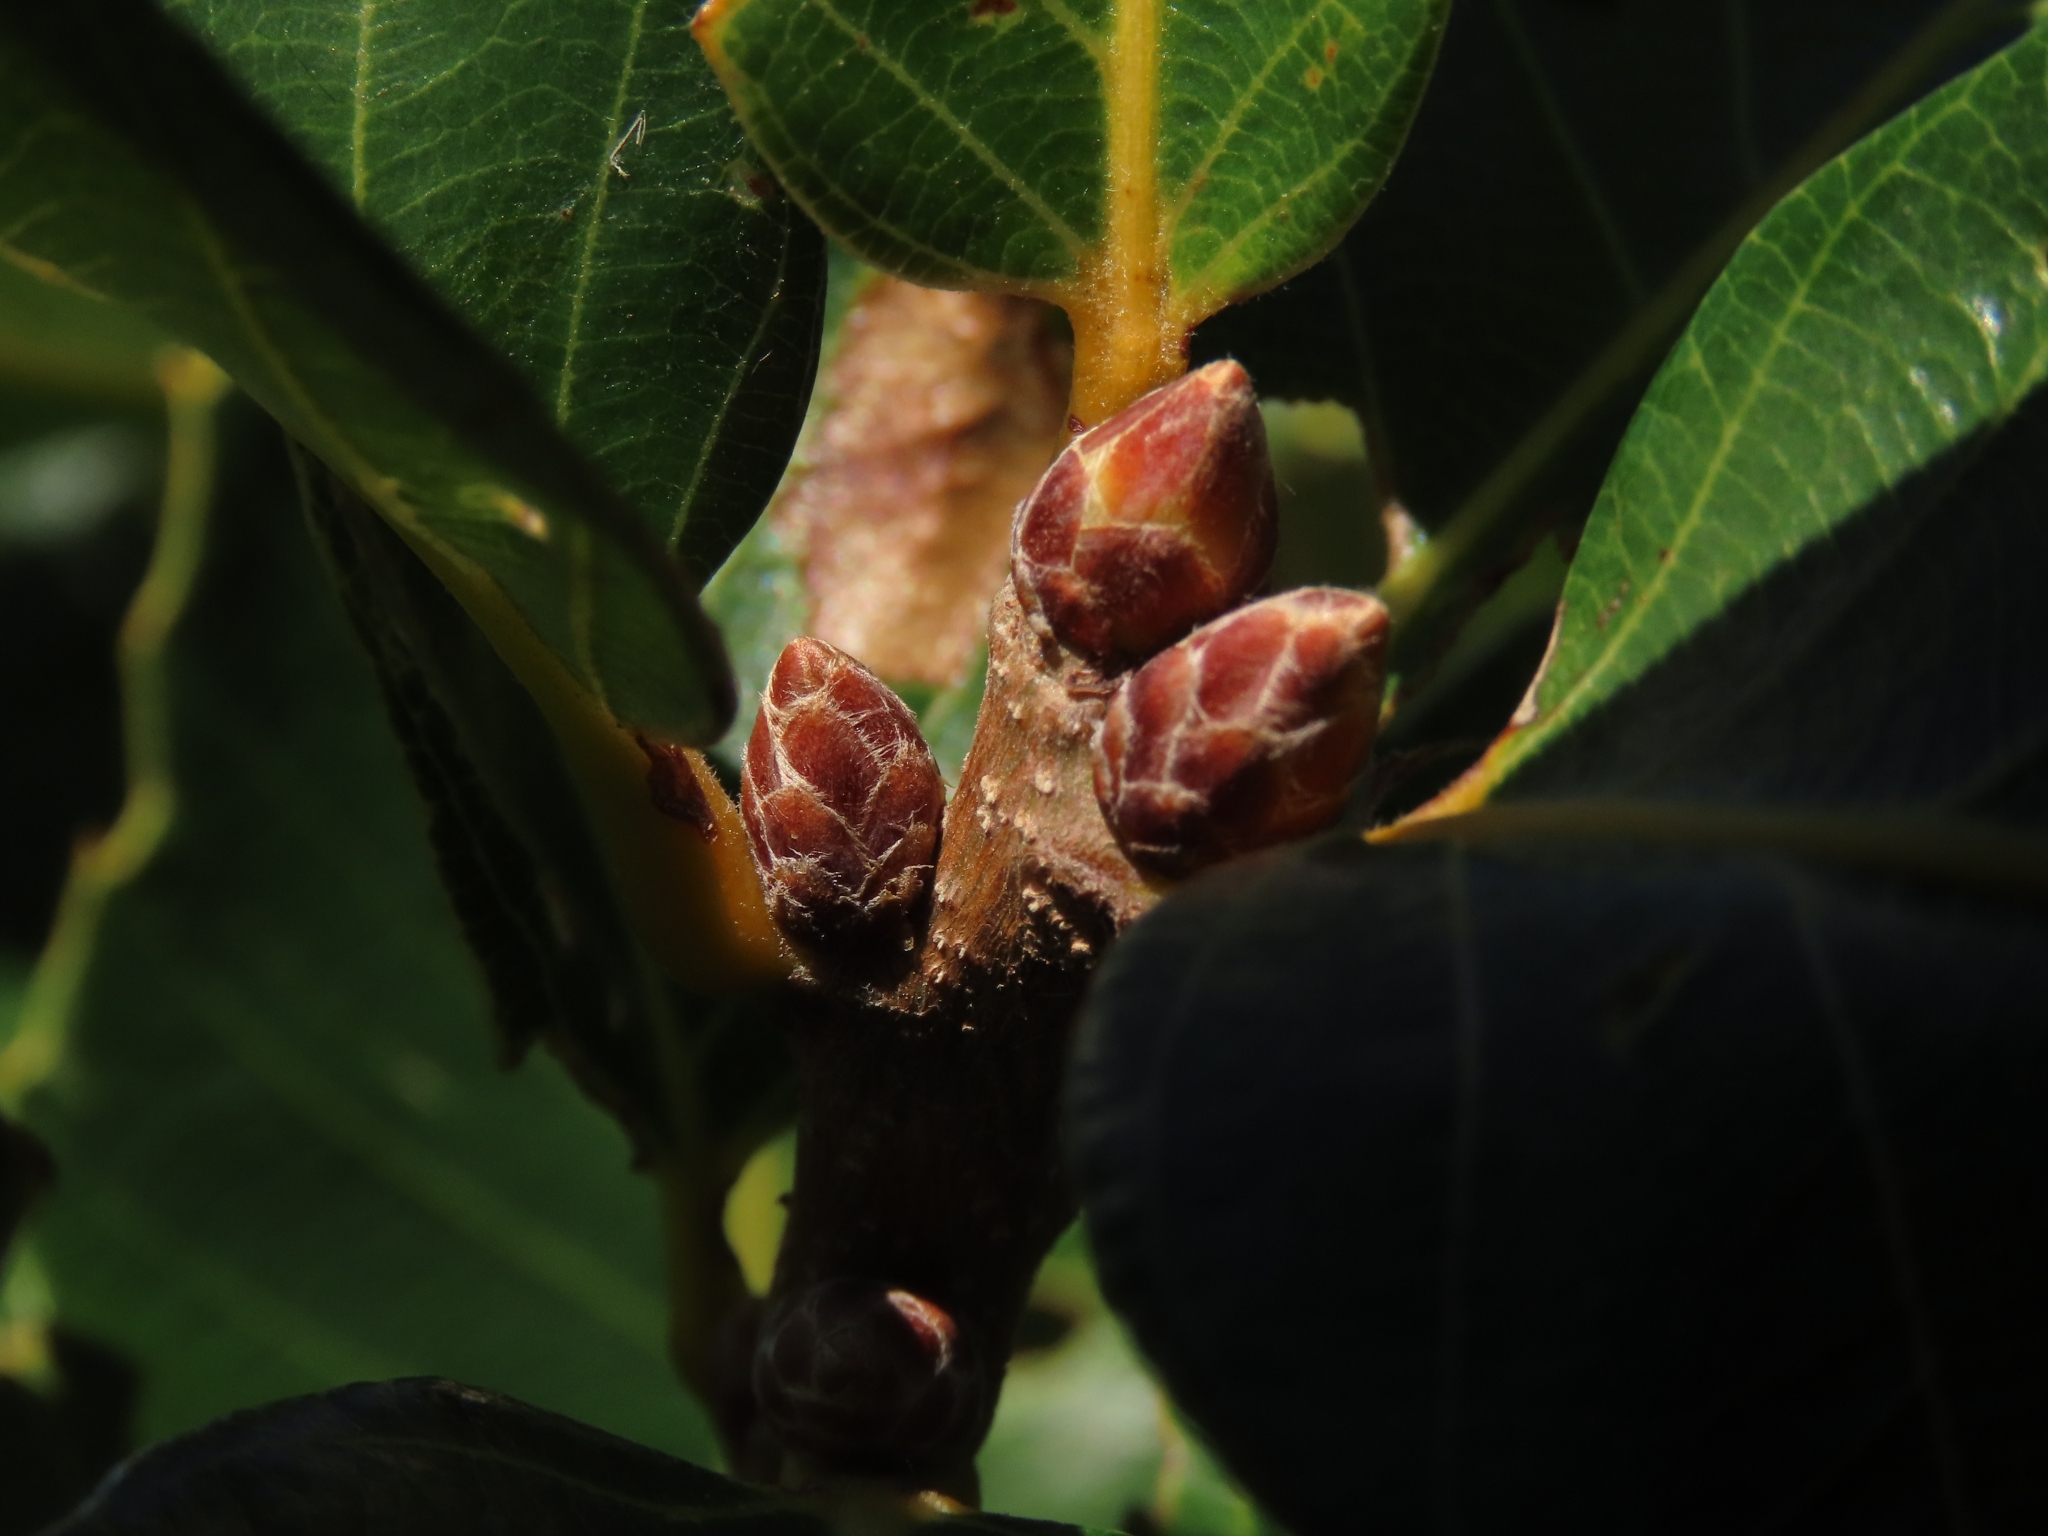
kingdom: Plantae
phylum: Tracheophyta
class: Magnoliopsida
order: Fagales
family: Fagaceae
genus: Quercus
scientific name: Quercus variabilis
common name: Chinese cork oak
